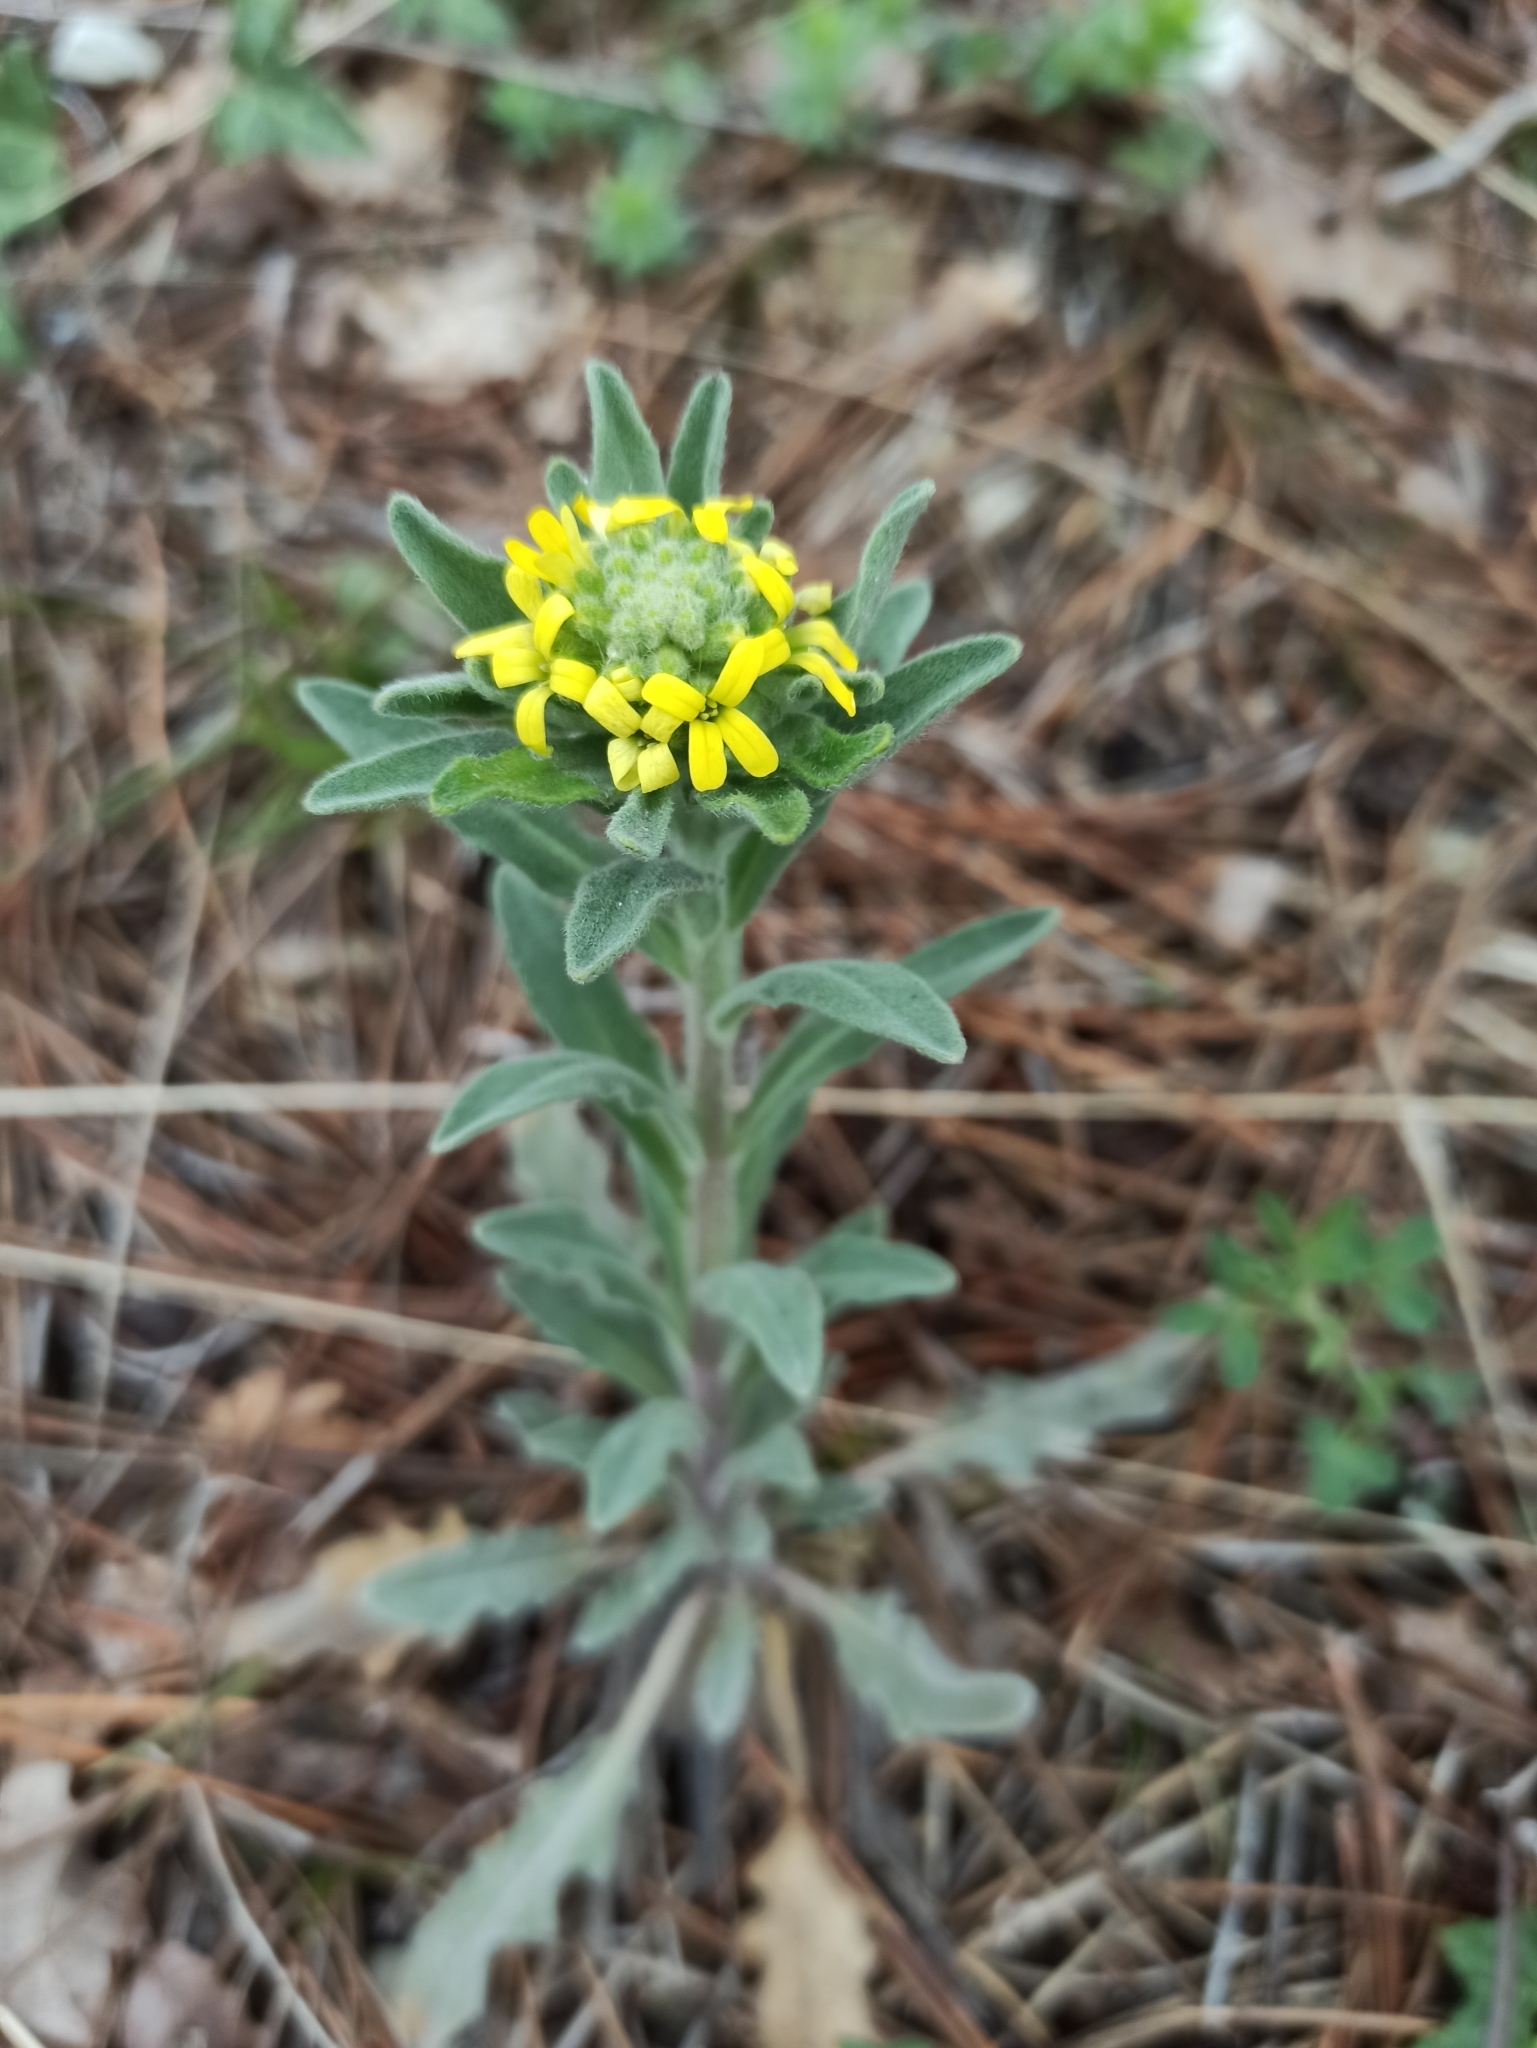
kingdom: Plantae
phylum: Tracheophyta
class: Magnoliopsida
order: Brassicales
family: Brassicaceae
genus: Fibigia
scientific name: Fibigia clypeata
